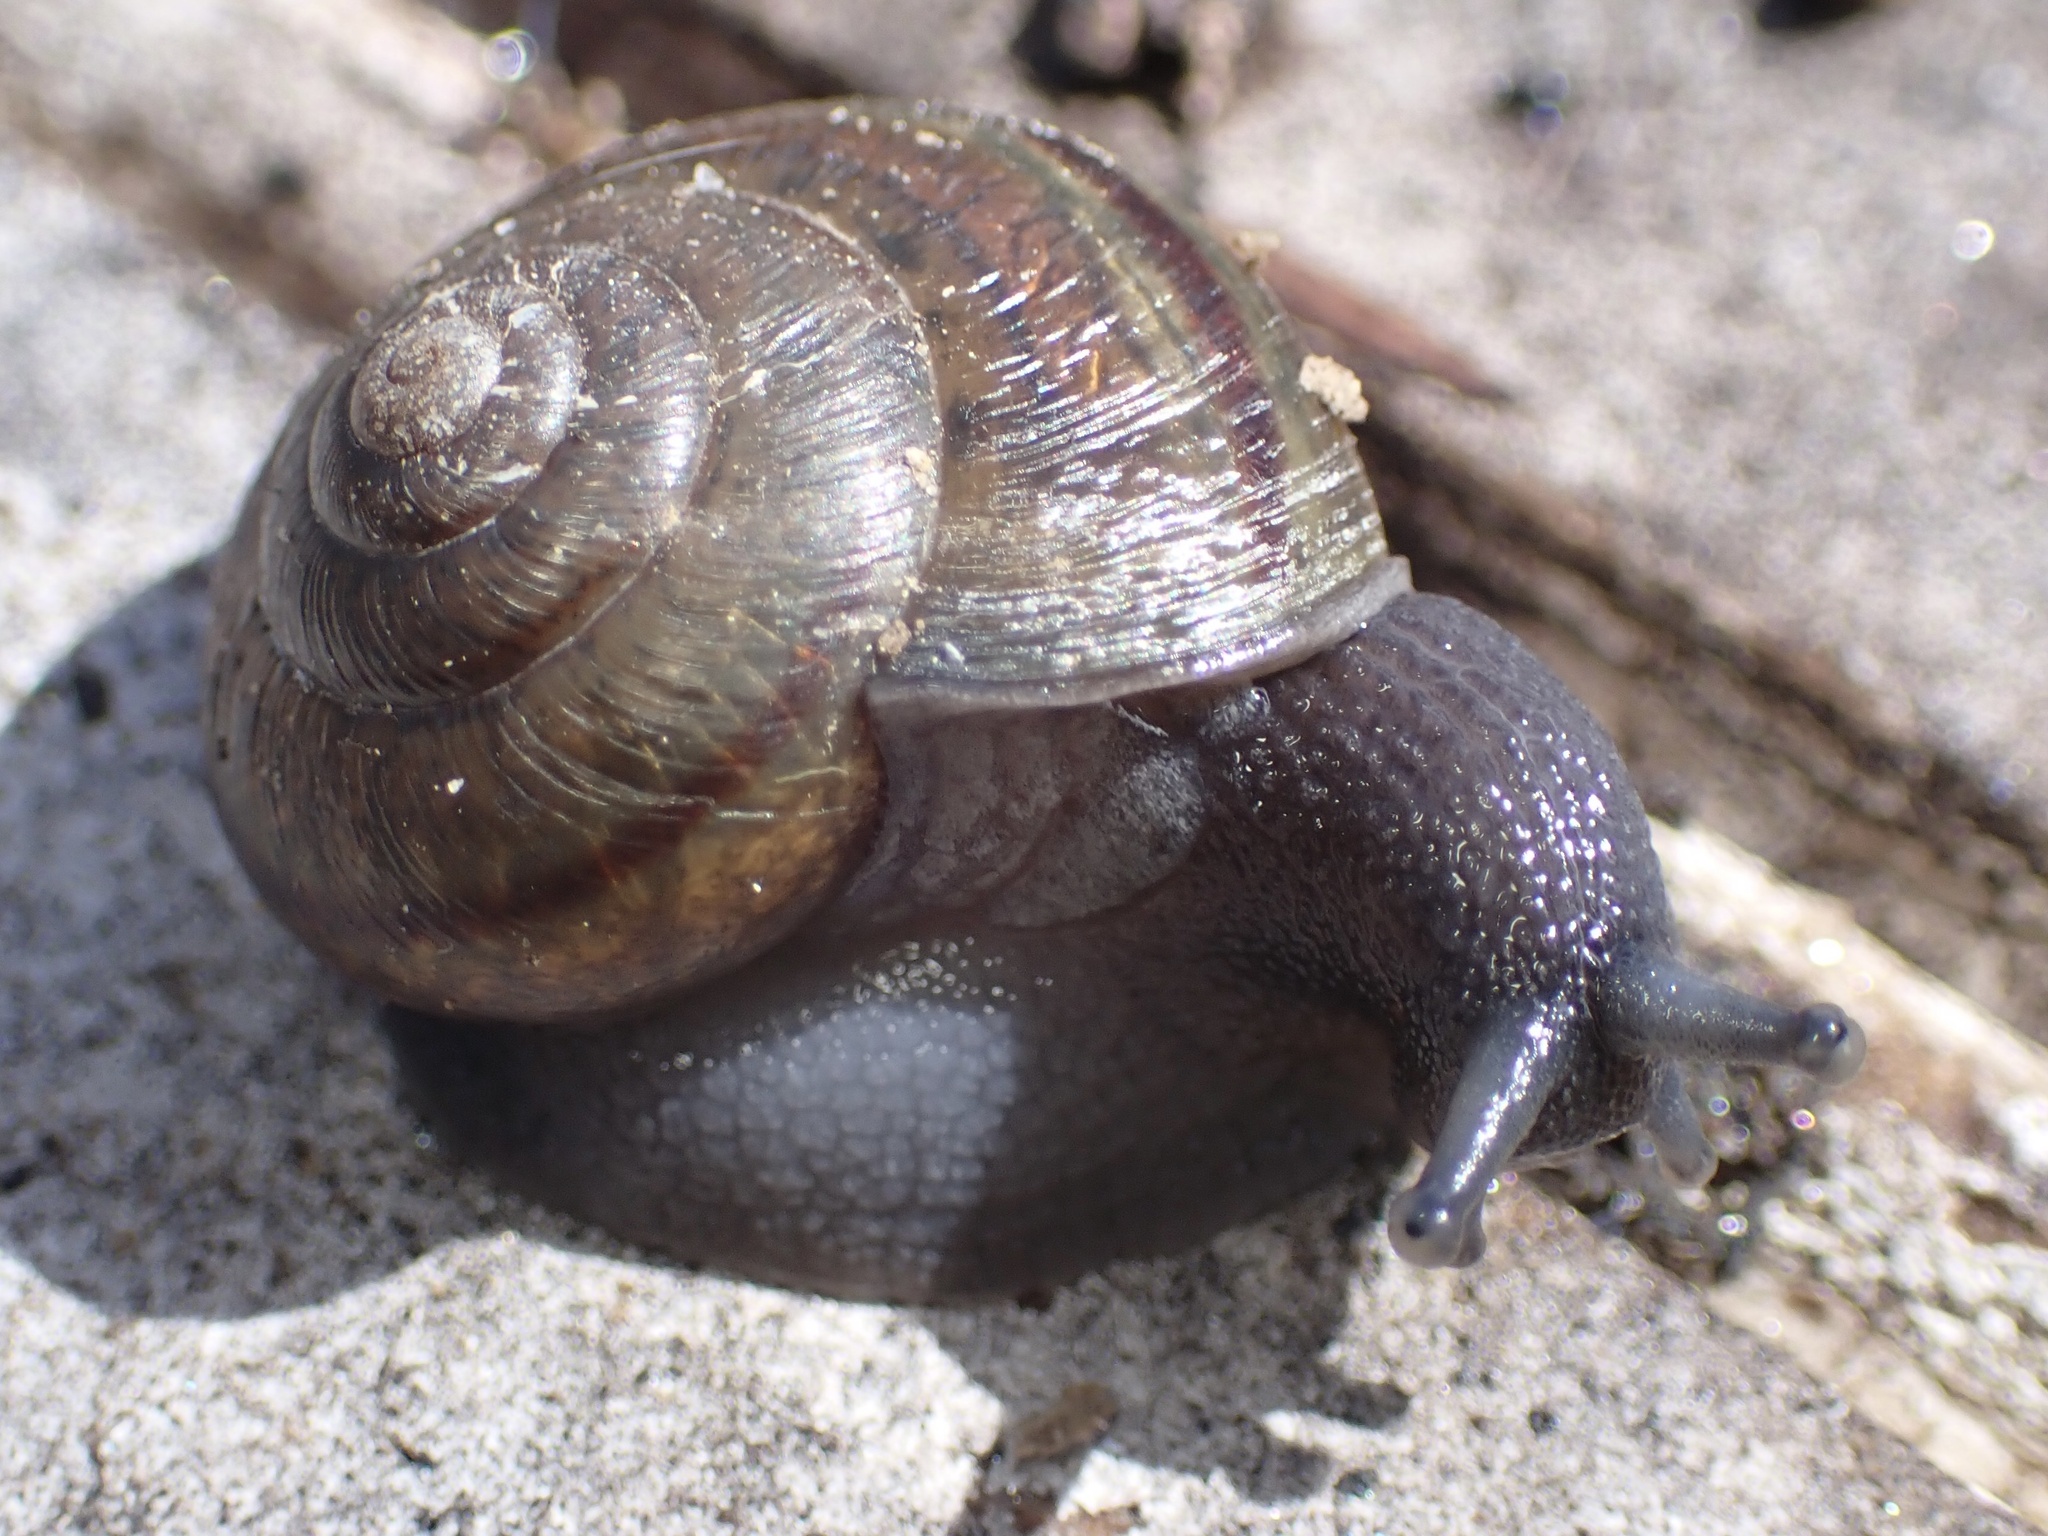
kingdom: Animalia
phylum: Mollusca
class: Gastropoda
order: Stylommatophora
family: Xanthonychidae
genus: Helminthoglypta
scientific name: Helminthoglypta tudiculata
